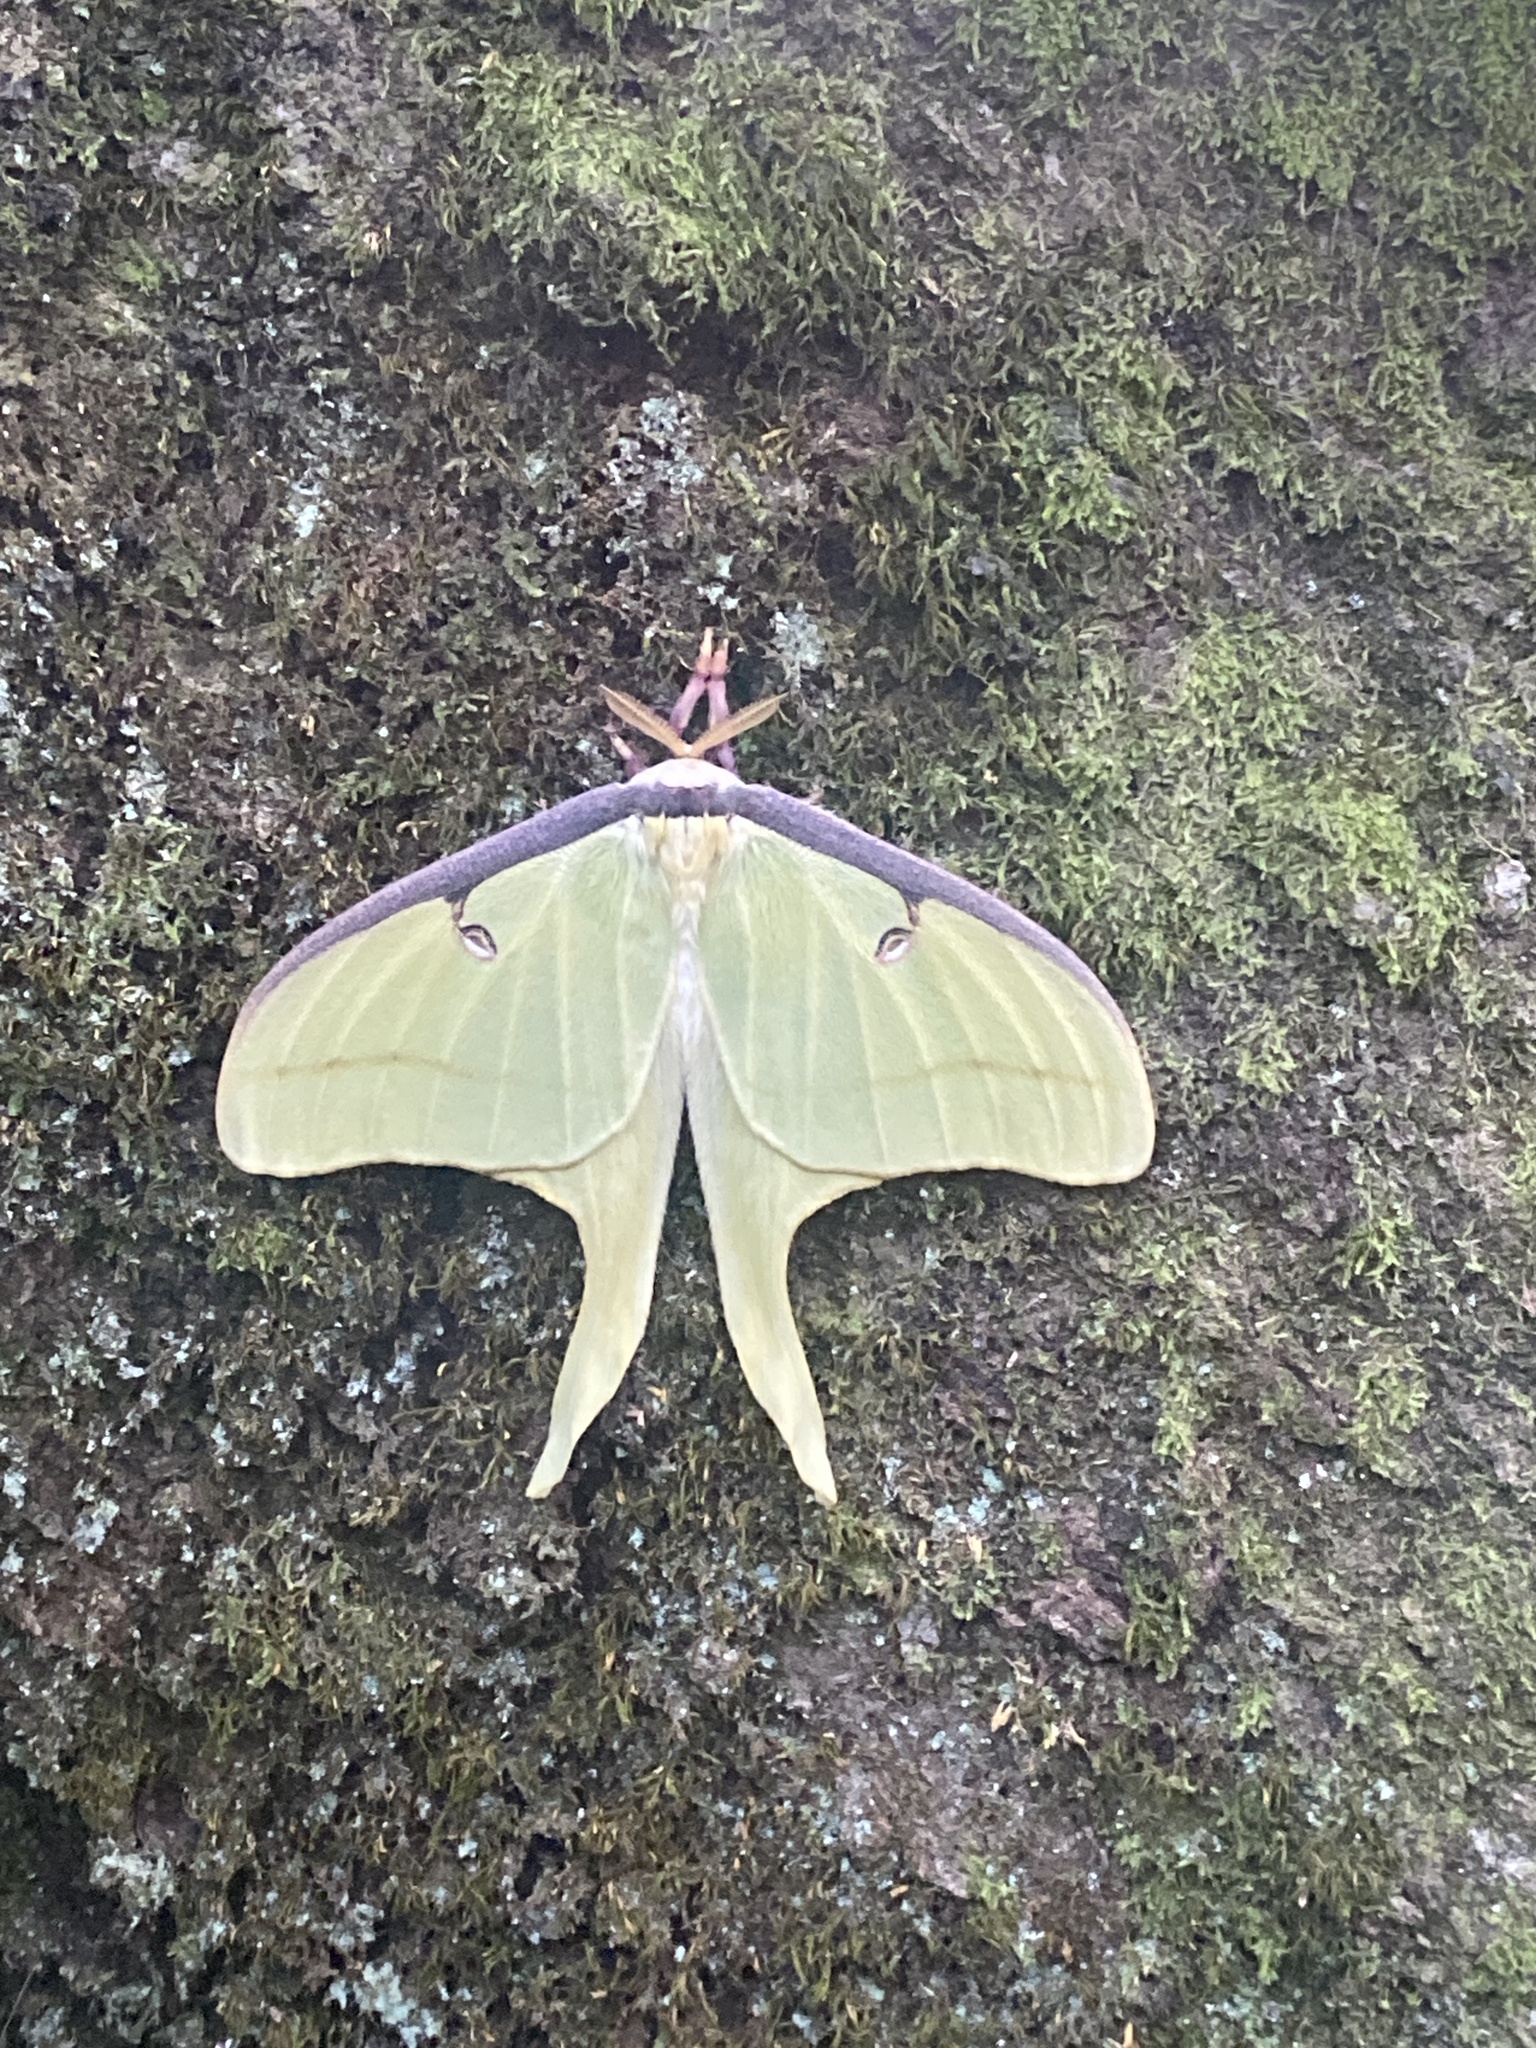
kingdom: Animalia
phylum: Arthropoda
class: Insecta
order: Lepidoptera
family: Saturniidae
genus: Actias
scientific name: Actias luna
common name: Luna moth
